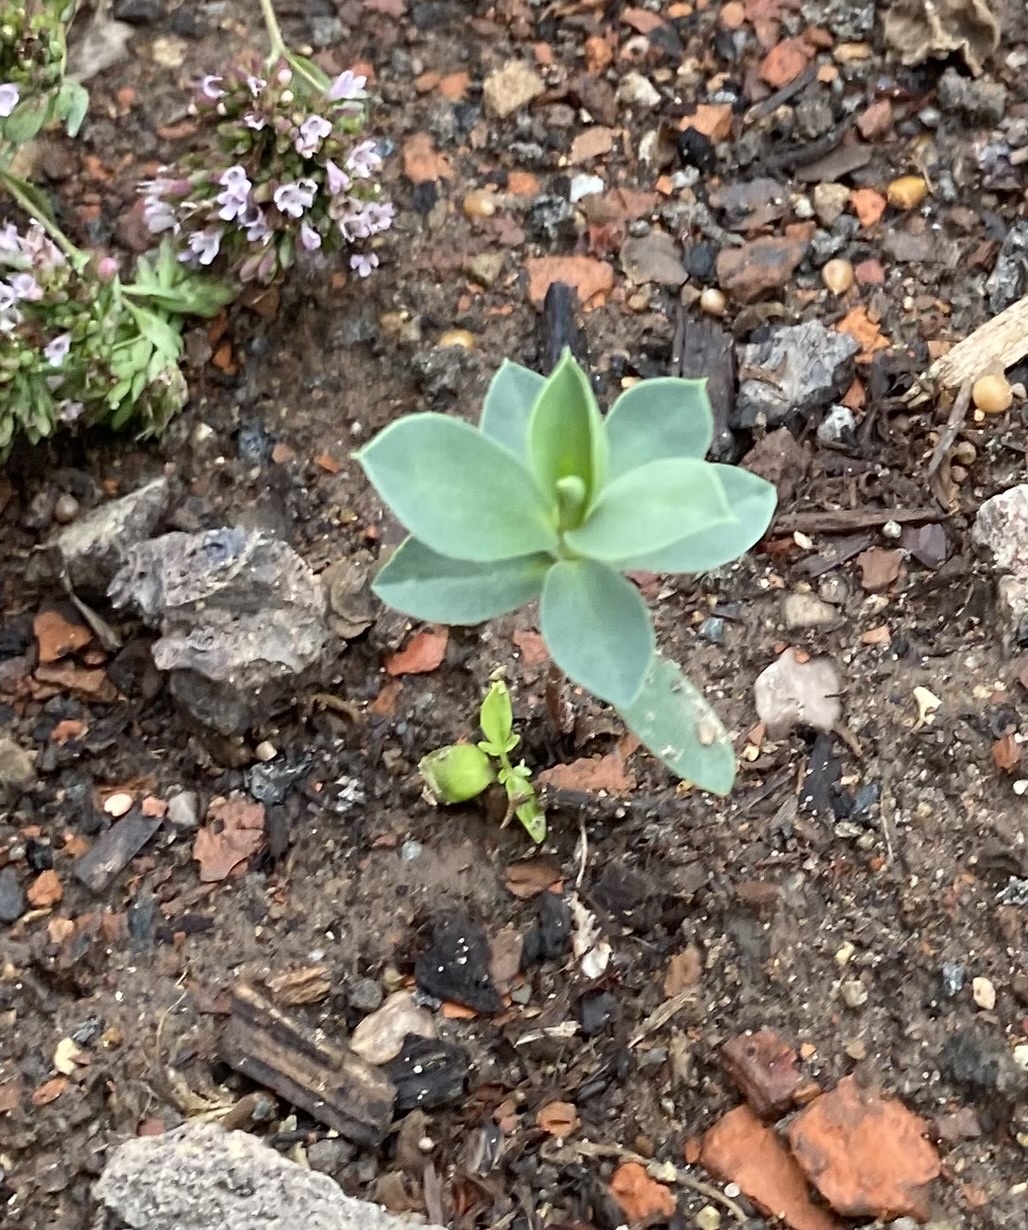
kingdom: Plantae
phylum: Tracheophyta
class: Magnoliopsida
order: Malpighiales
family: Euphorbiaceae
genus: Euphorbia
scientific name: Euphorbia myrsinites
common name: Myrtle spurge
